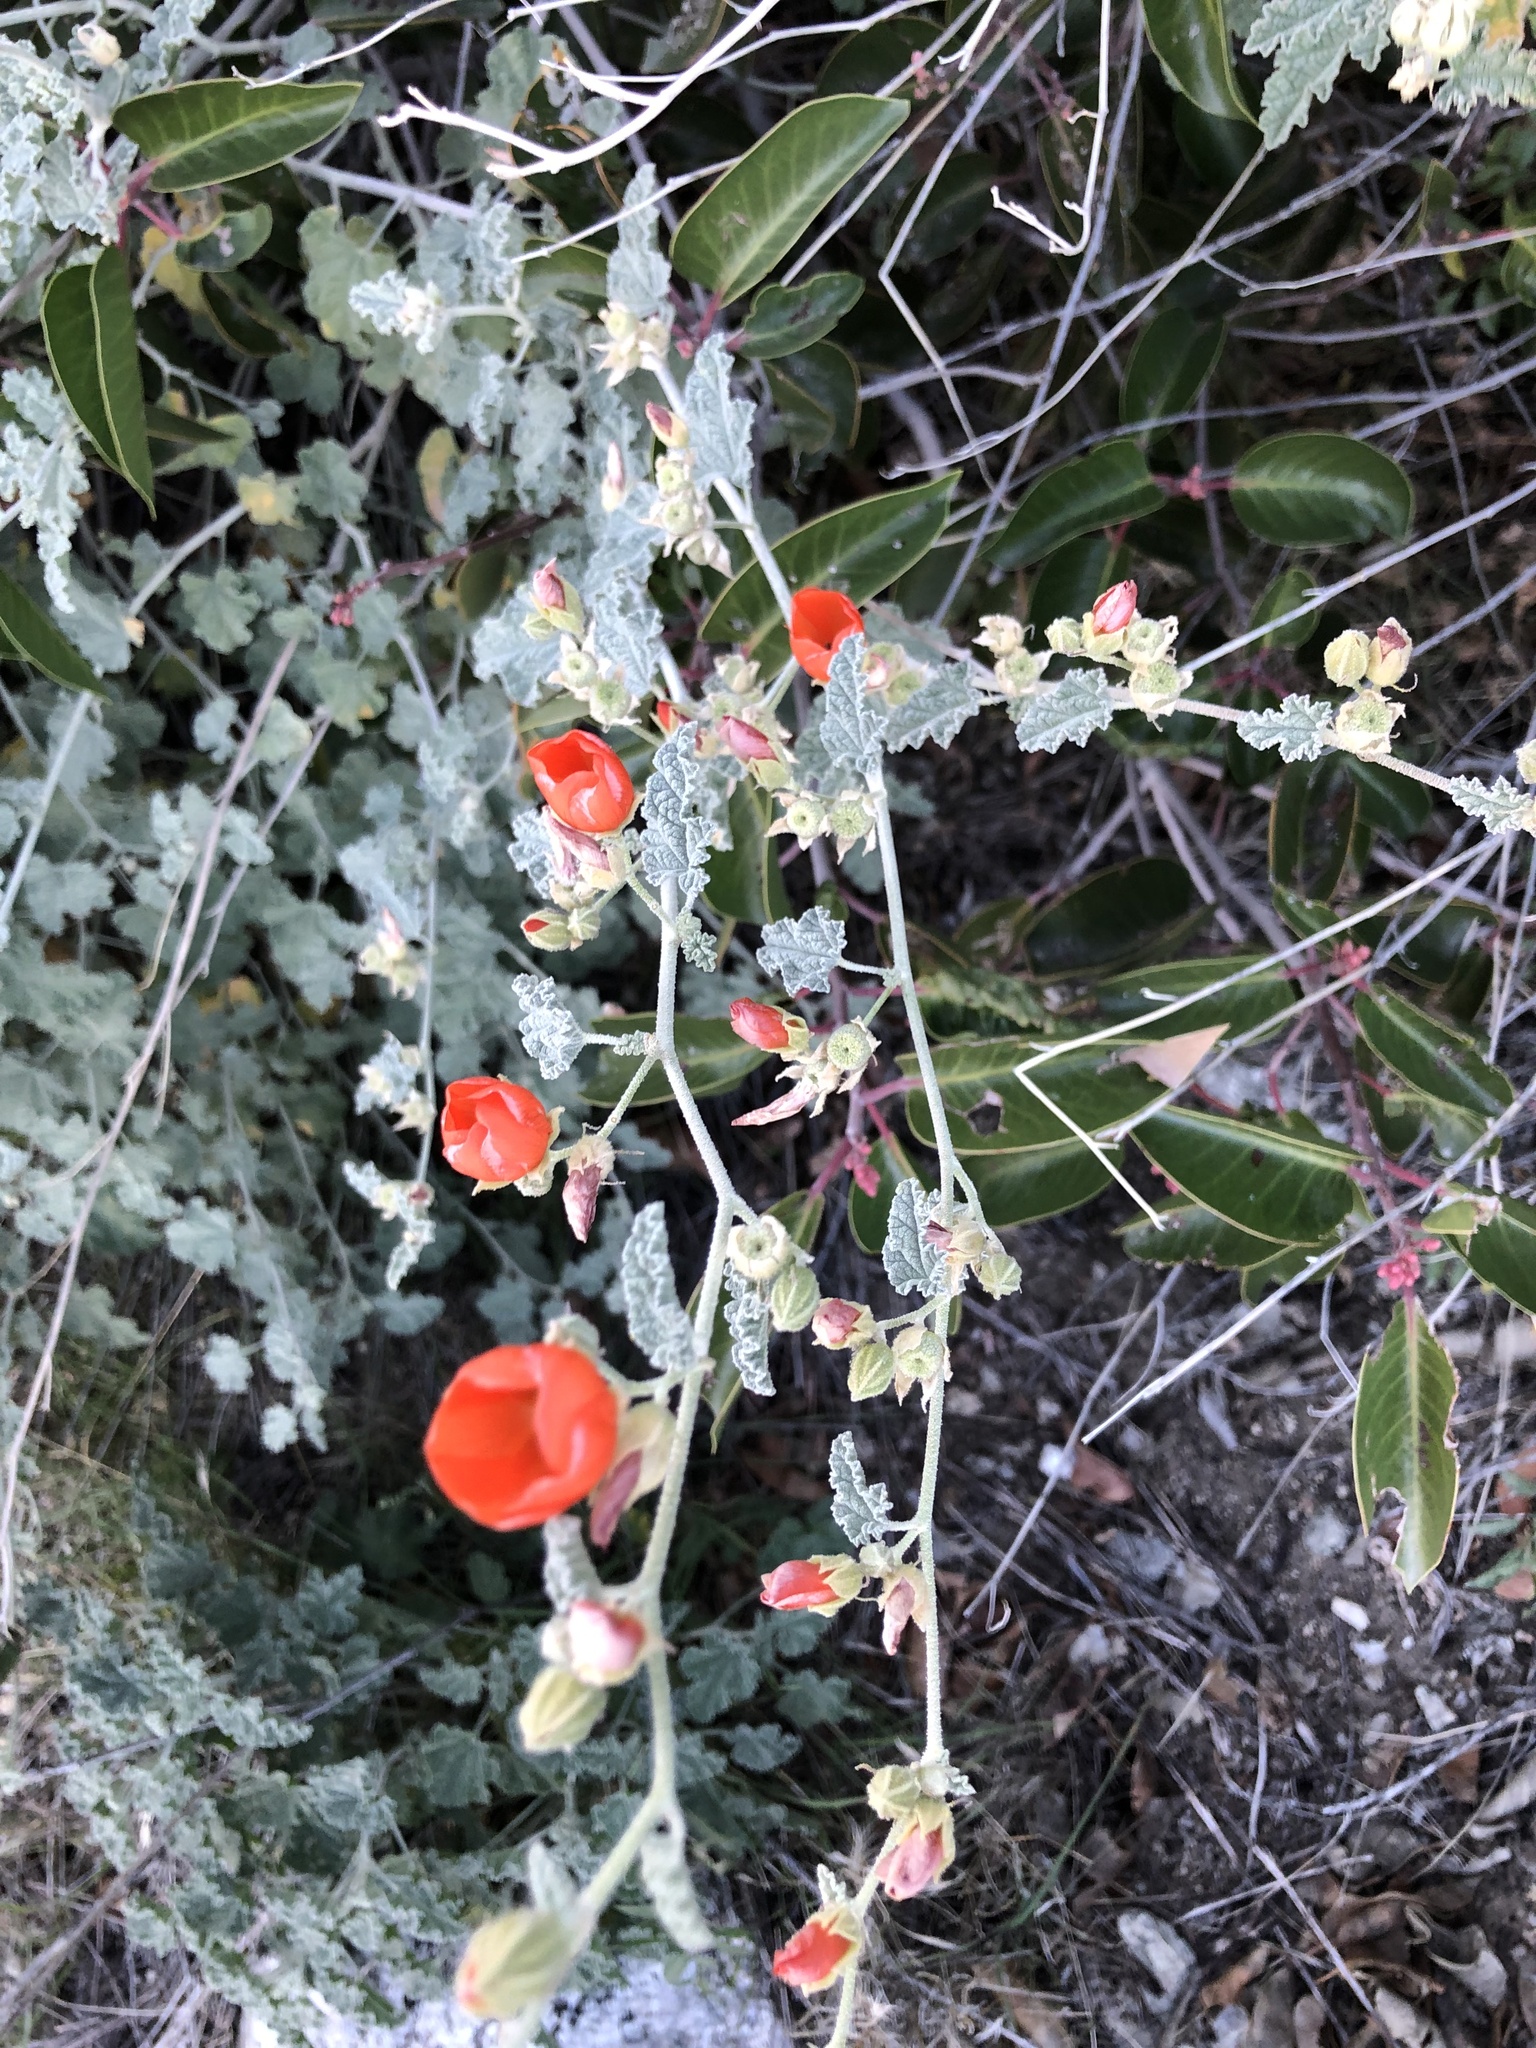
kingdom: Plantae
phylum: Tracheophyta
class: Magnoliopsida
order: Malvales
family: Malvaceae
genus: Sphaeralcea
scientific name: Sphaeralcea ambigua
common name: Apricot globe-mallow
